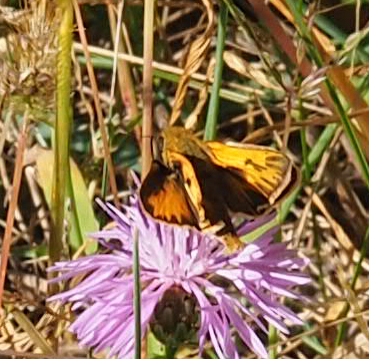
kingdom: Animalia
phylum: Arthropoda
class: Insecta
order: Lepidoptera
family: Hesperiidae
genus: Hylephila
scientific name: Hylephila phyleus
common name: Fiery skipper
